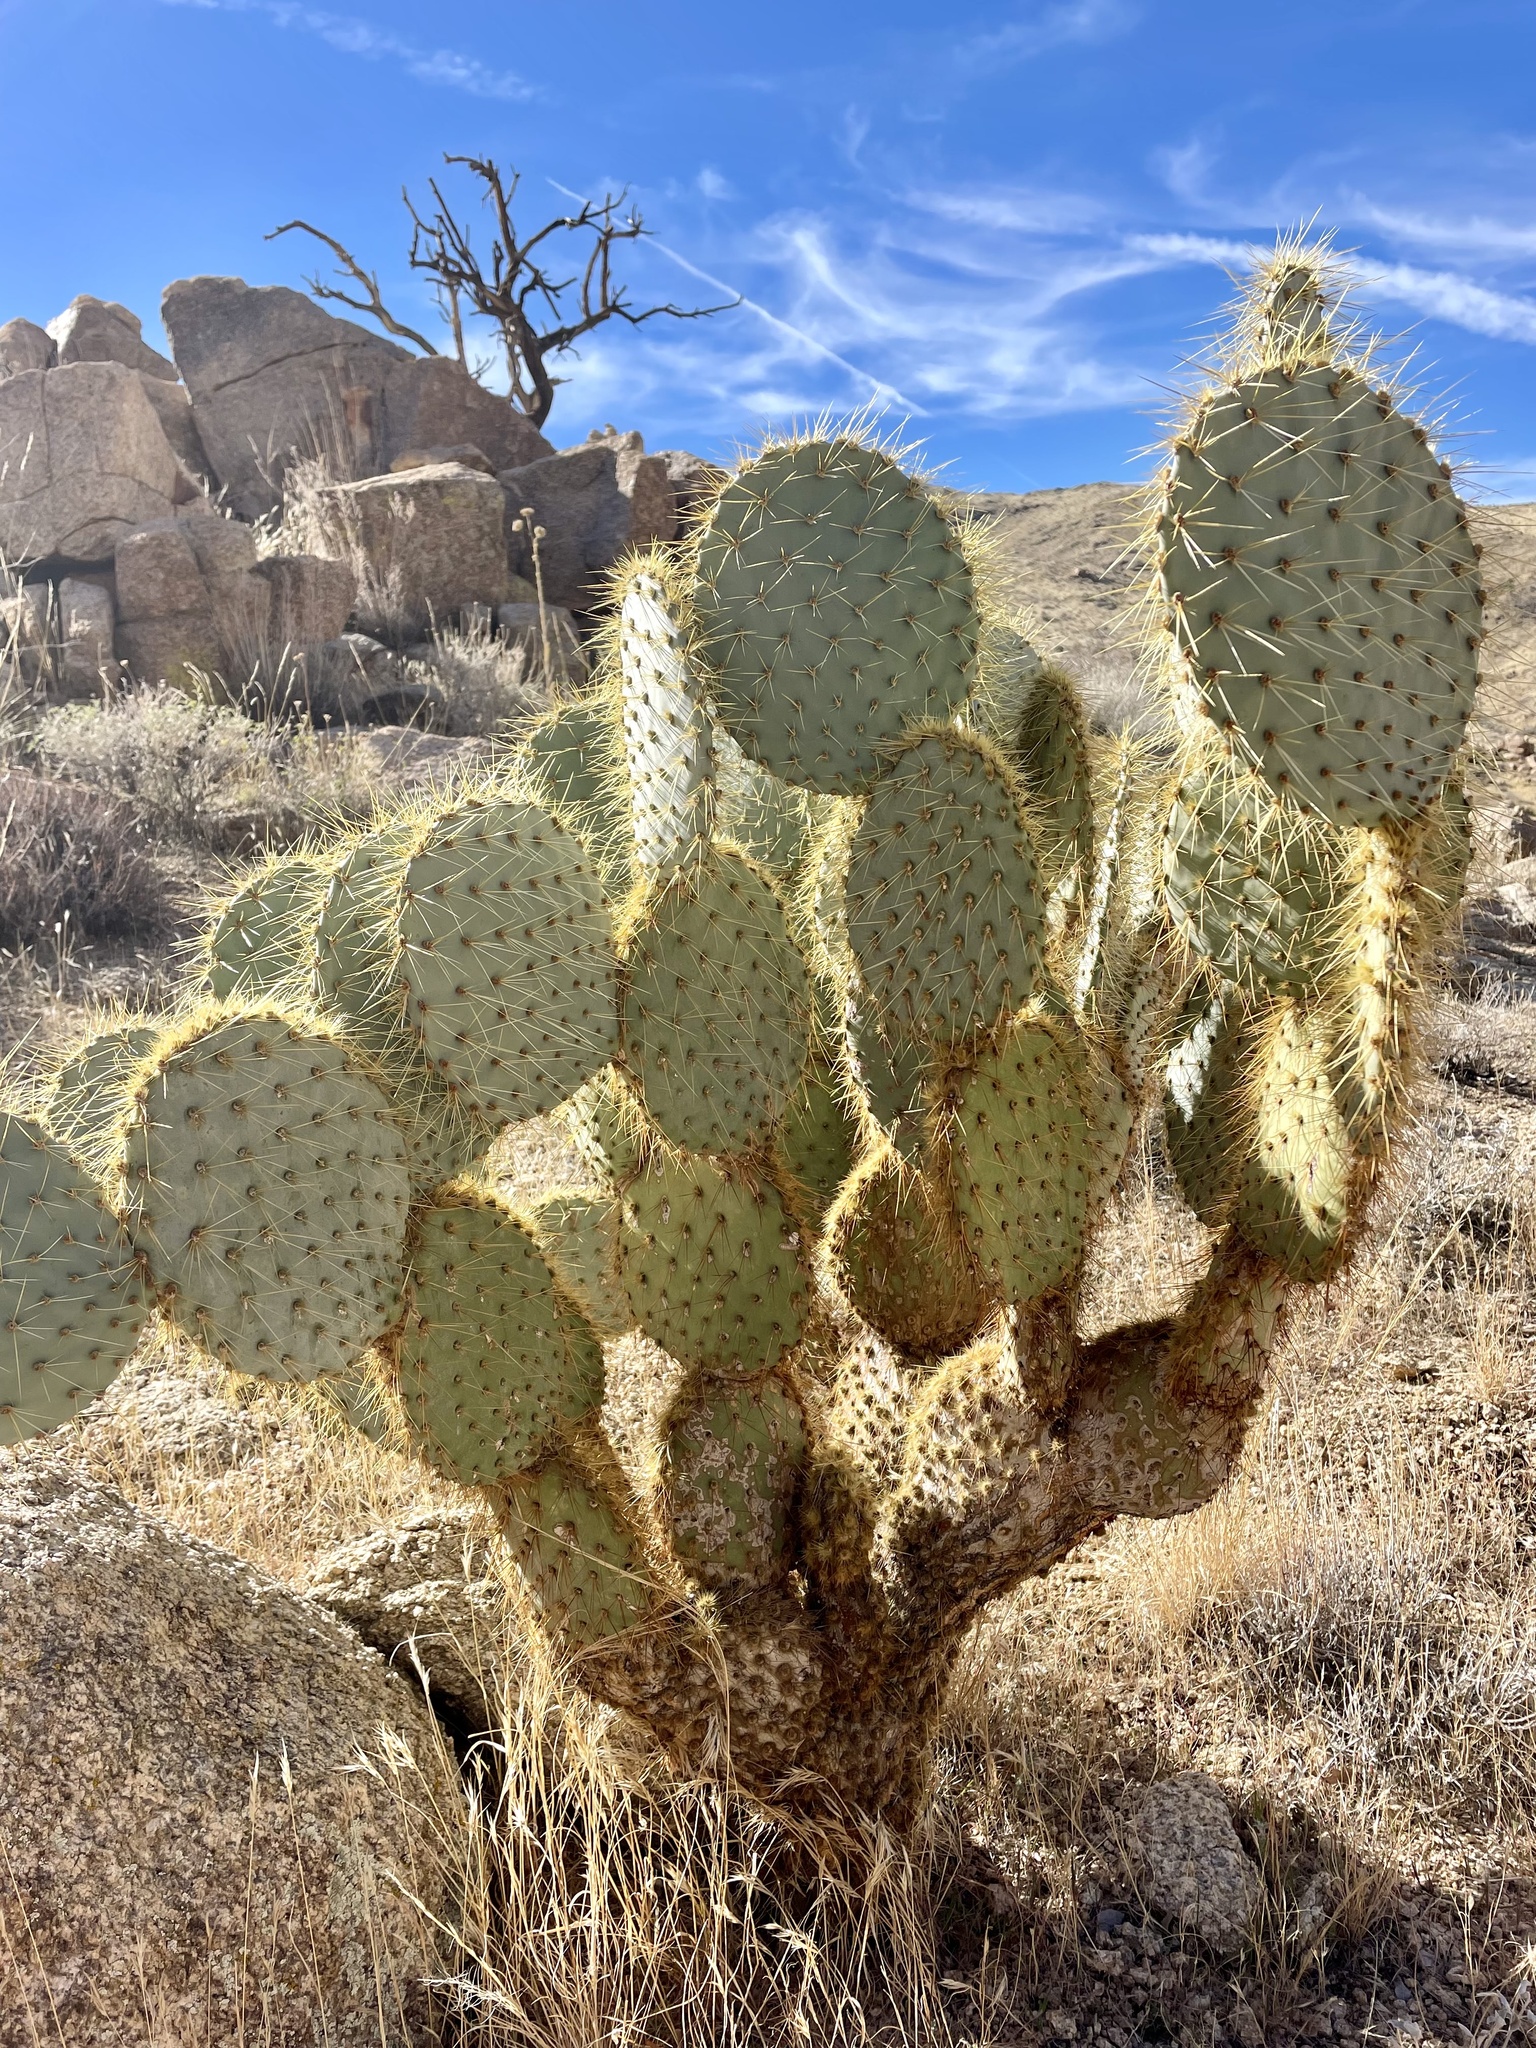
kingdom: Plantae
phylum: Tracheophyta
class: Magnoliopsida
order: Caryophyllales
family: Cactaceae
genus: Opuntia
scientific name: Opuntia chlorotica
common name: Dollar-joint prickly-pear
